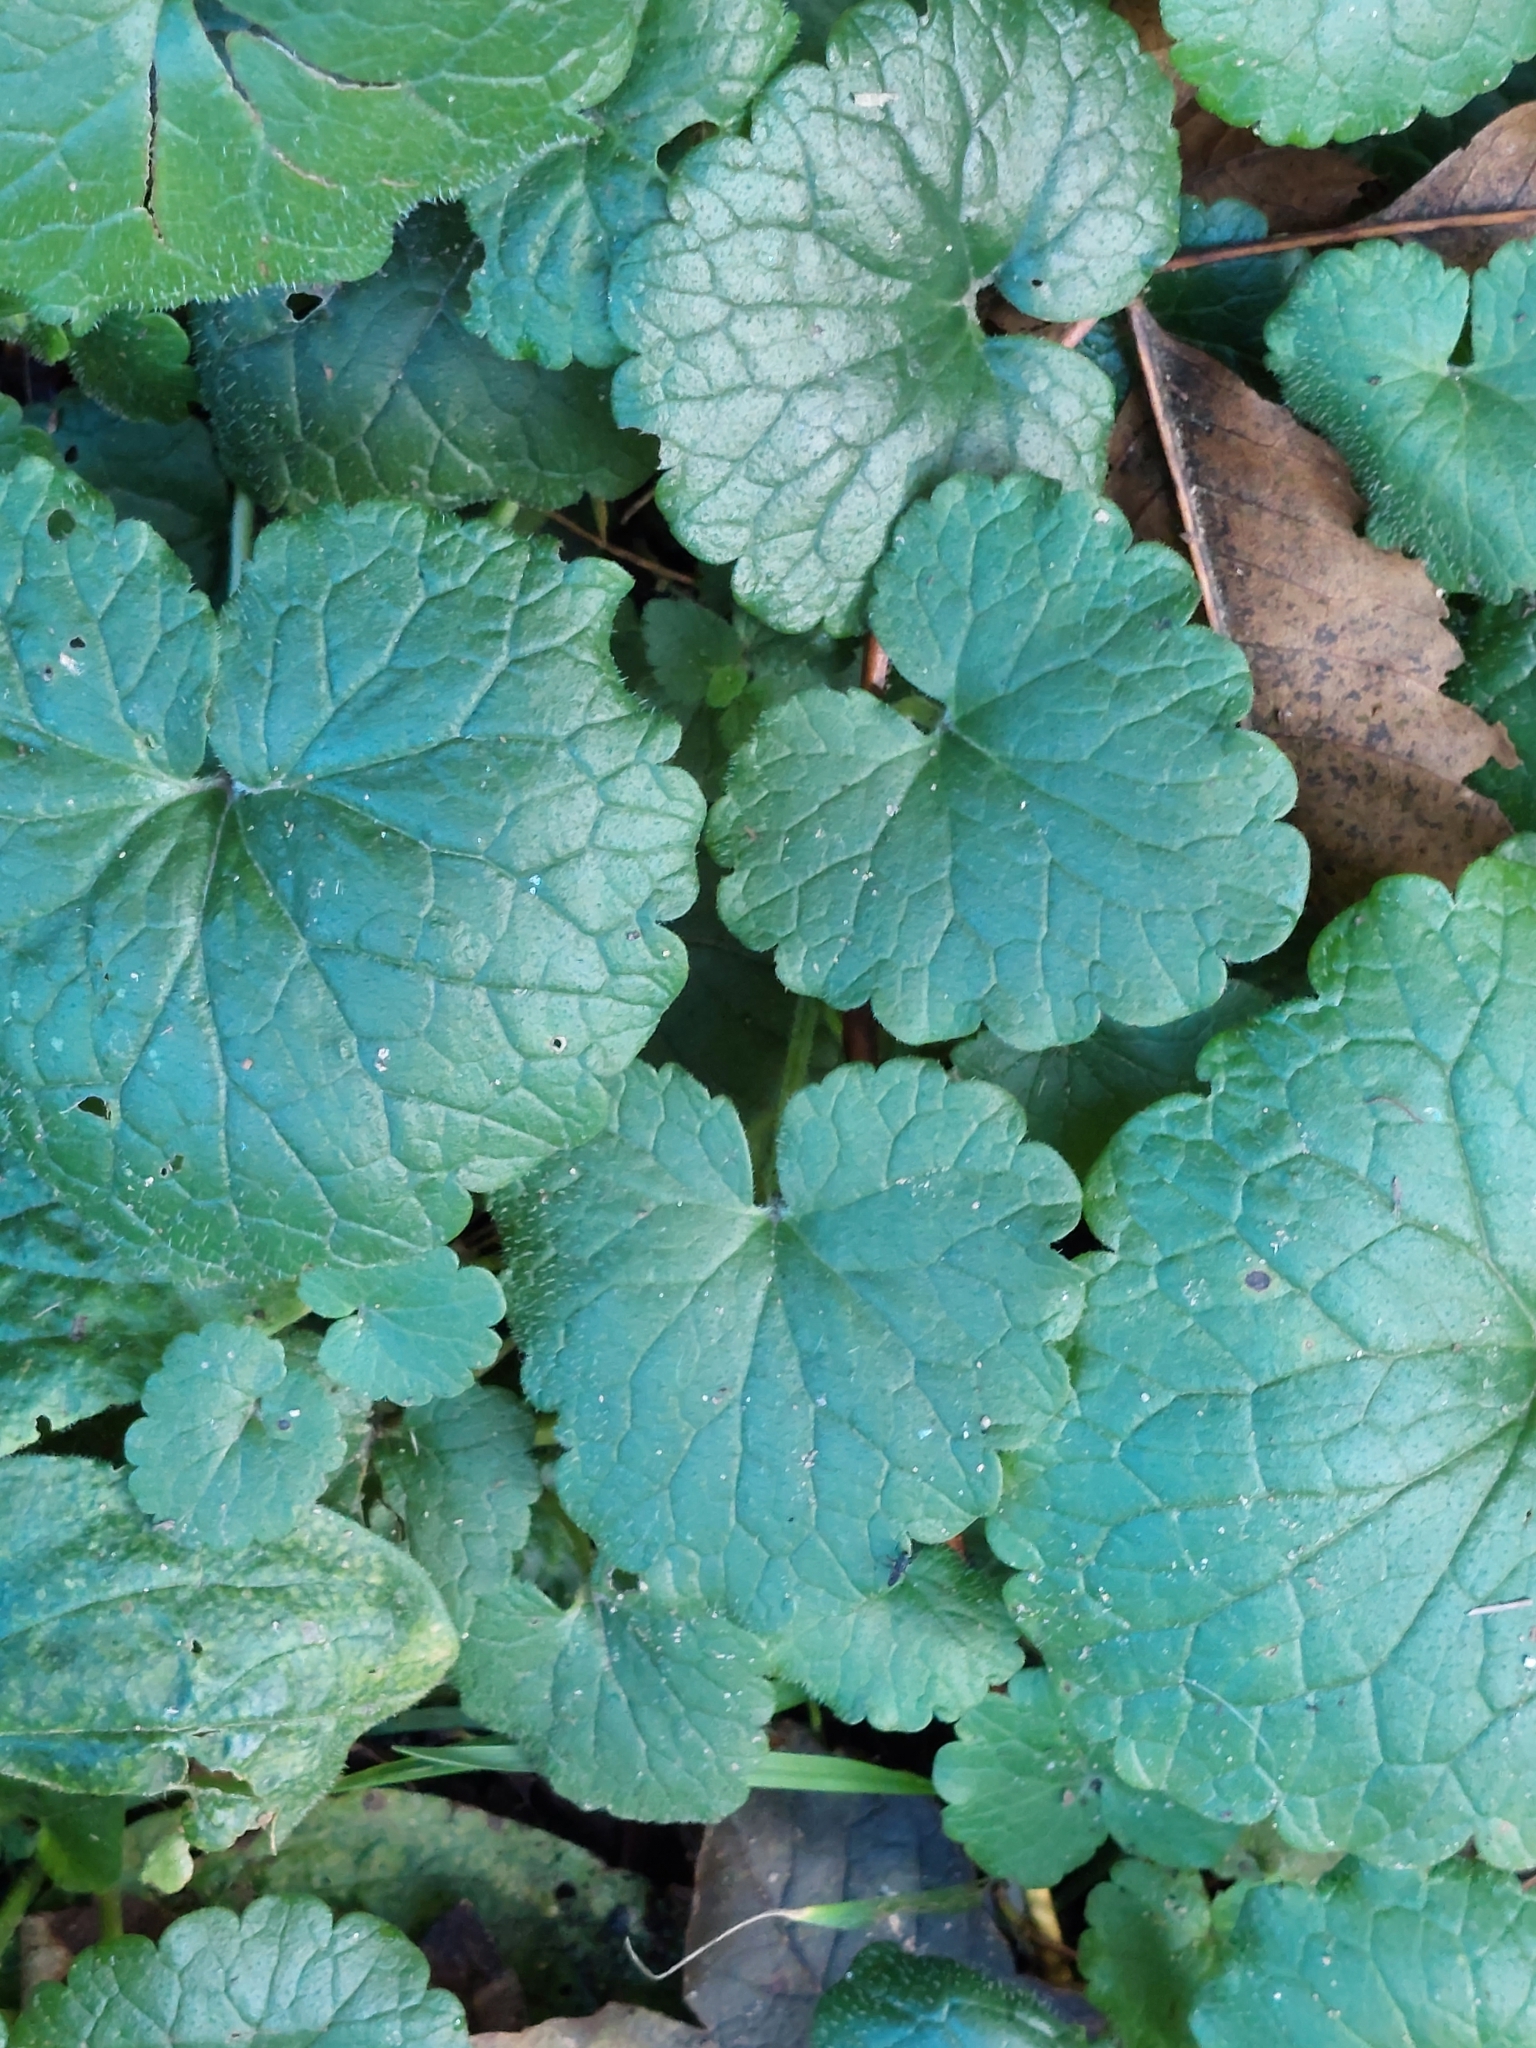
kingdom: Plantae
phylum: Tracheophyta
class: Magnoliopsida
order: Lamiales
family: Lamiaceae
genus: Glechoma
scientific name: Glechoma hederacea
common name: Ground ivy
